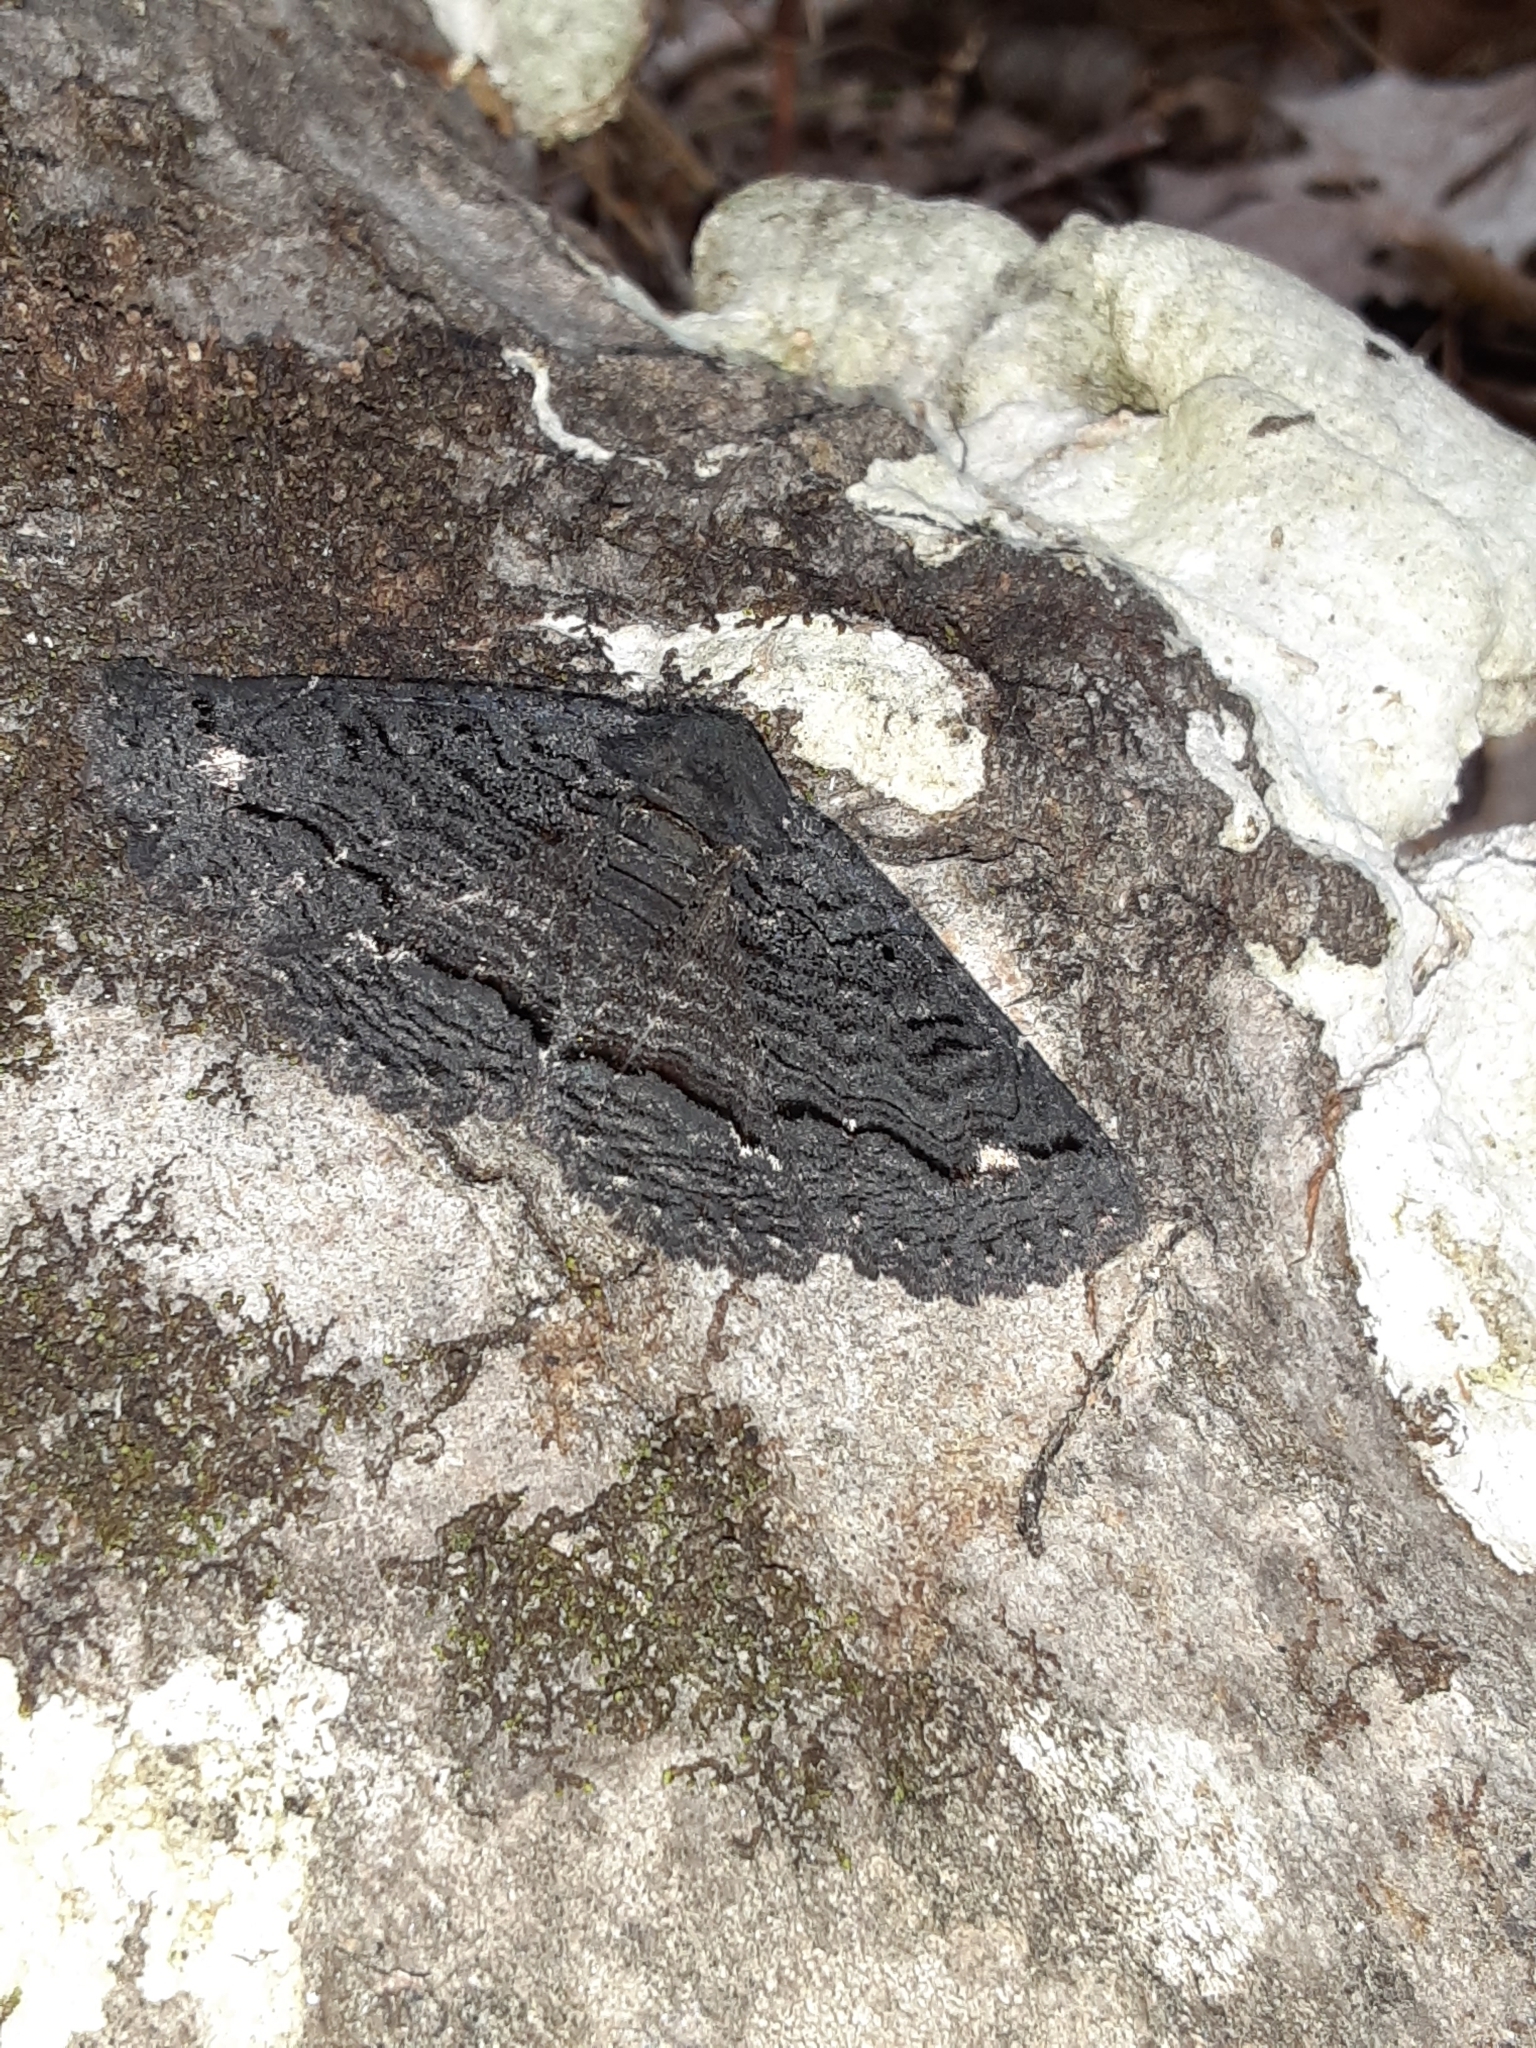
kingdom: Animalia
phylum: Arthropoda
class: Insecta
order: Lepidoptera
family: Erebidae
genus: Zale
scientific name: Zale undularis
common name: Black zale moth
